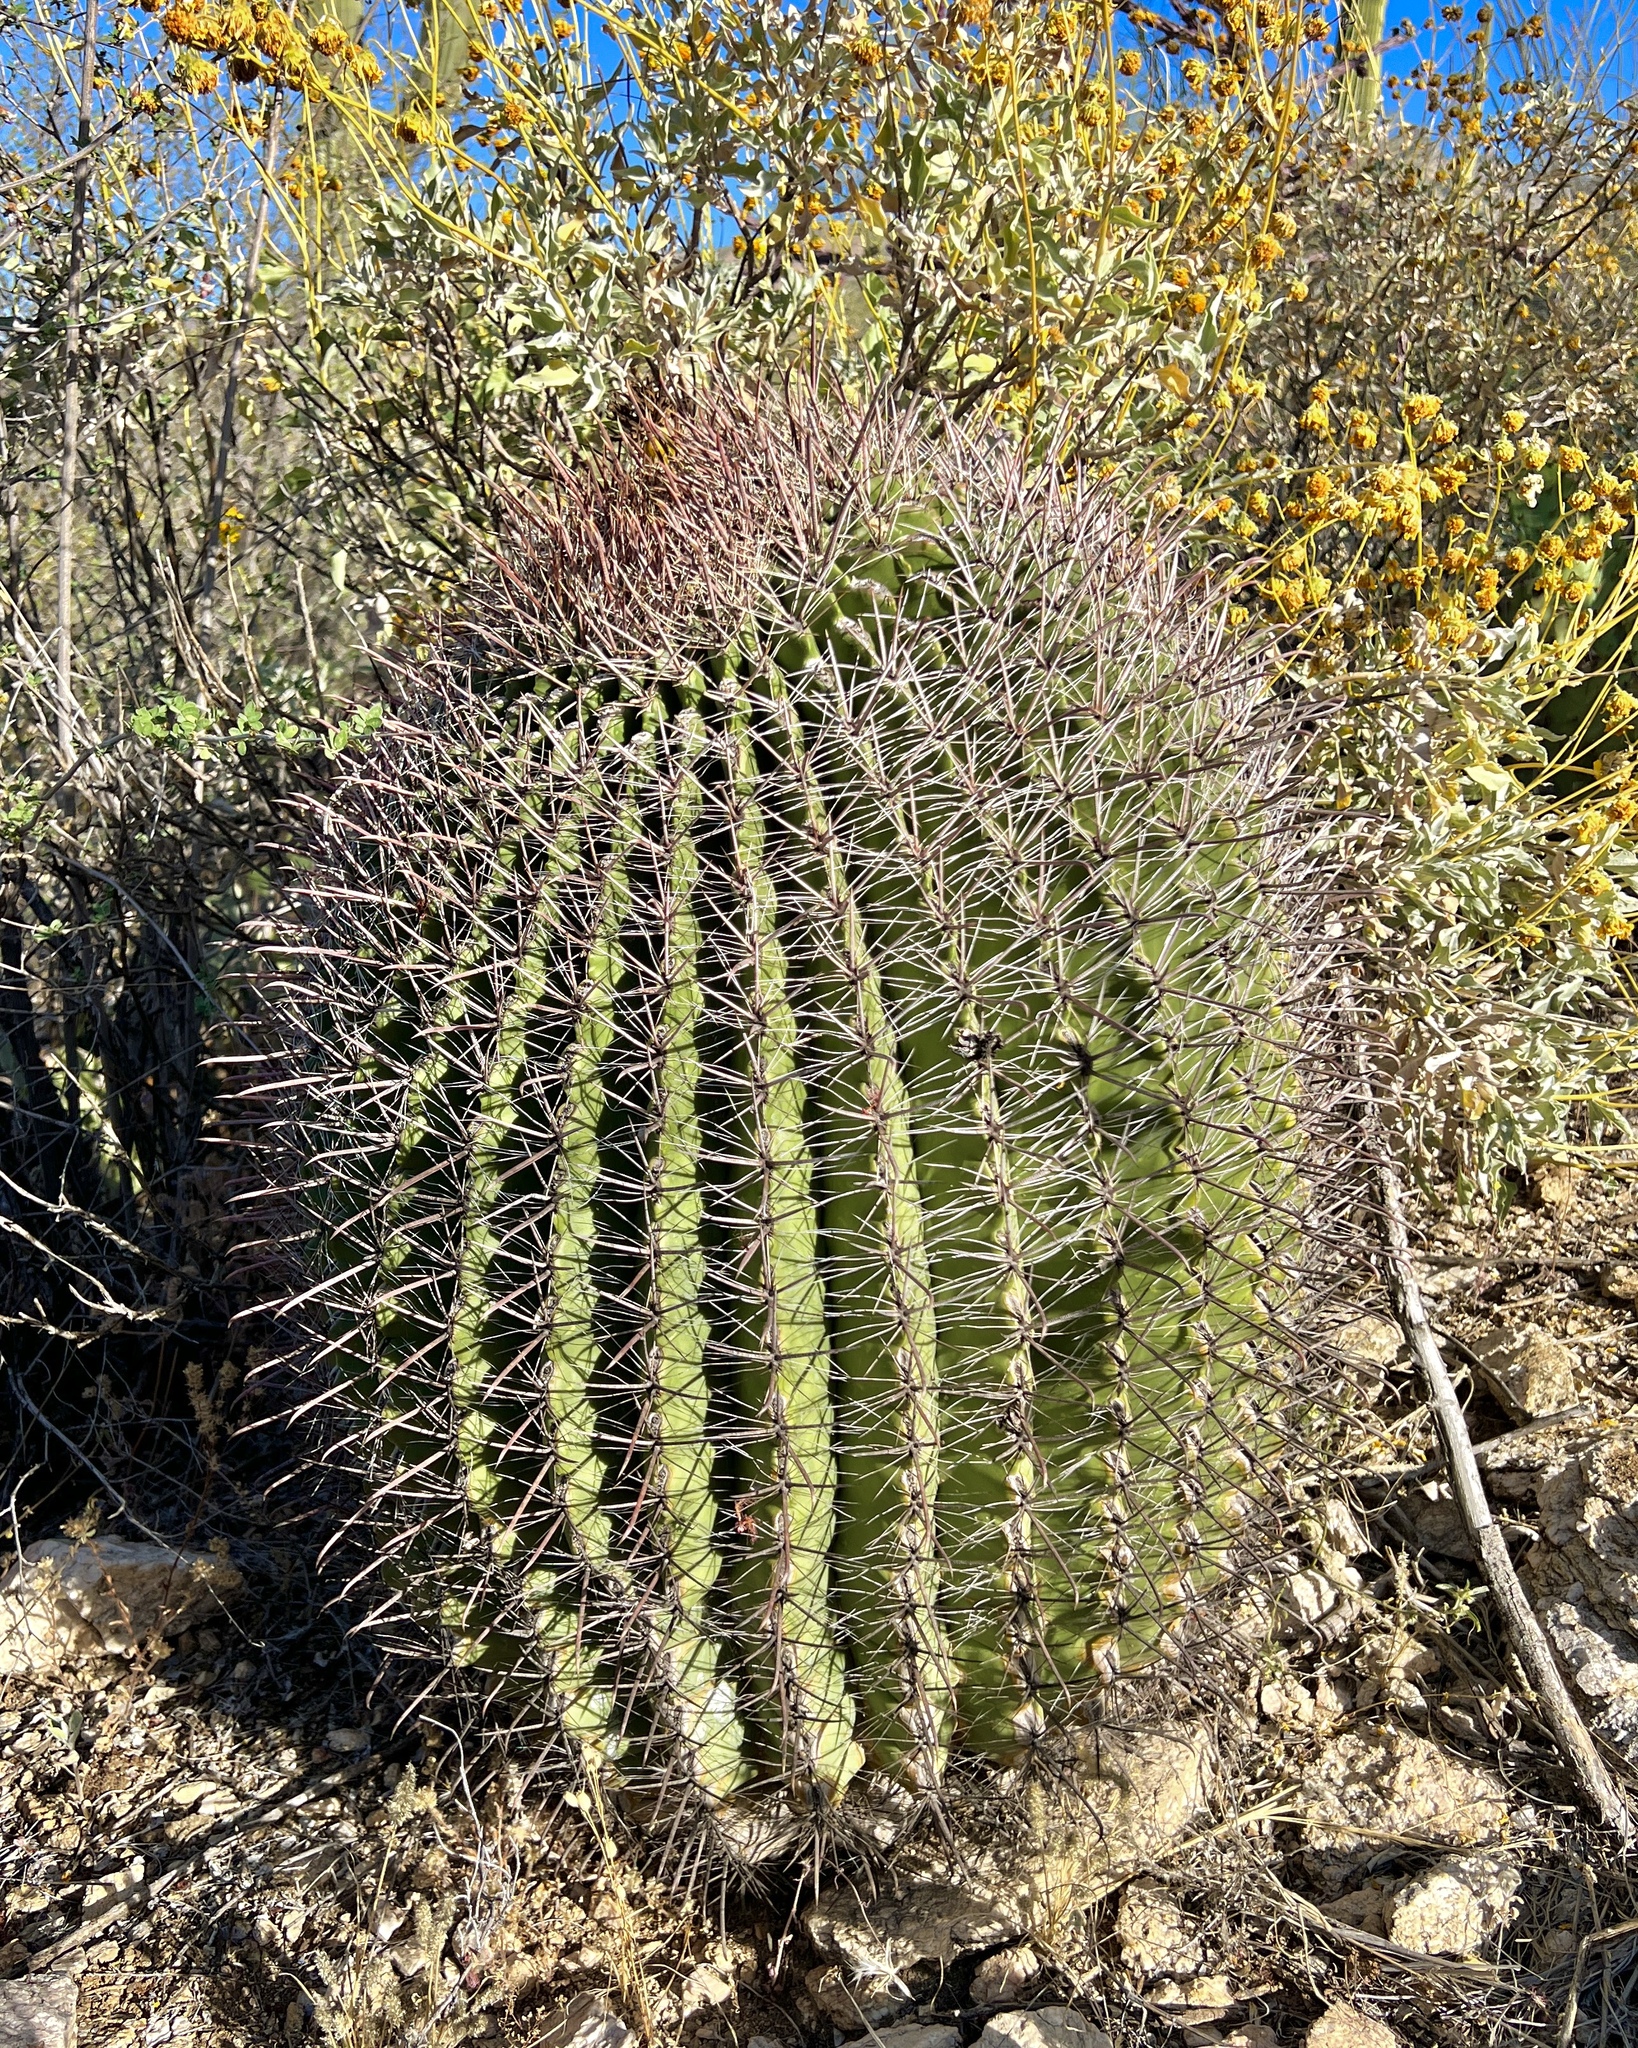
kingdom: Plantae
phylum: Tracheophyta
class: Magnoliopsida
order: Caryophyllales
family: Cactaceae
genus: Ferocactus
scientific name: Ferocactus wislizeni
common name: Candy barrel cactus
